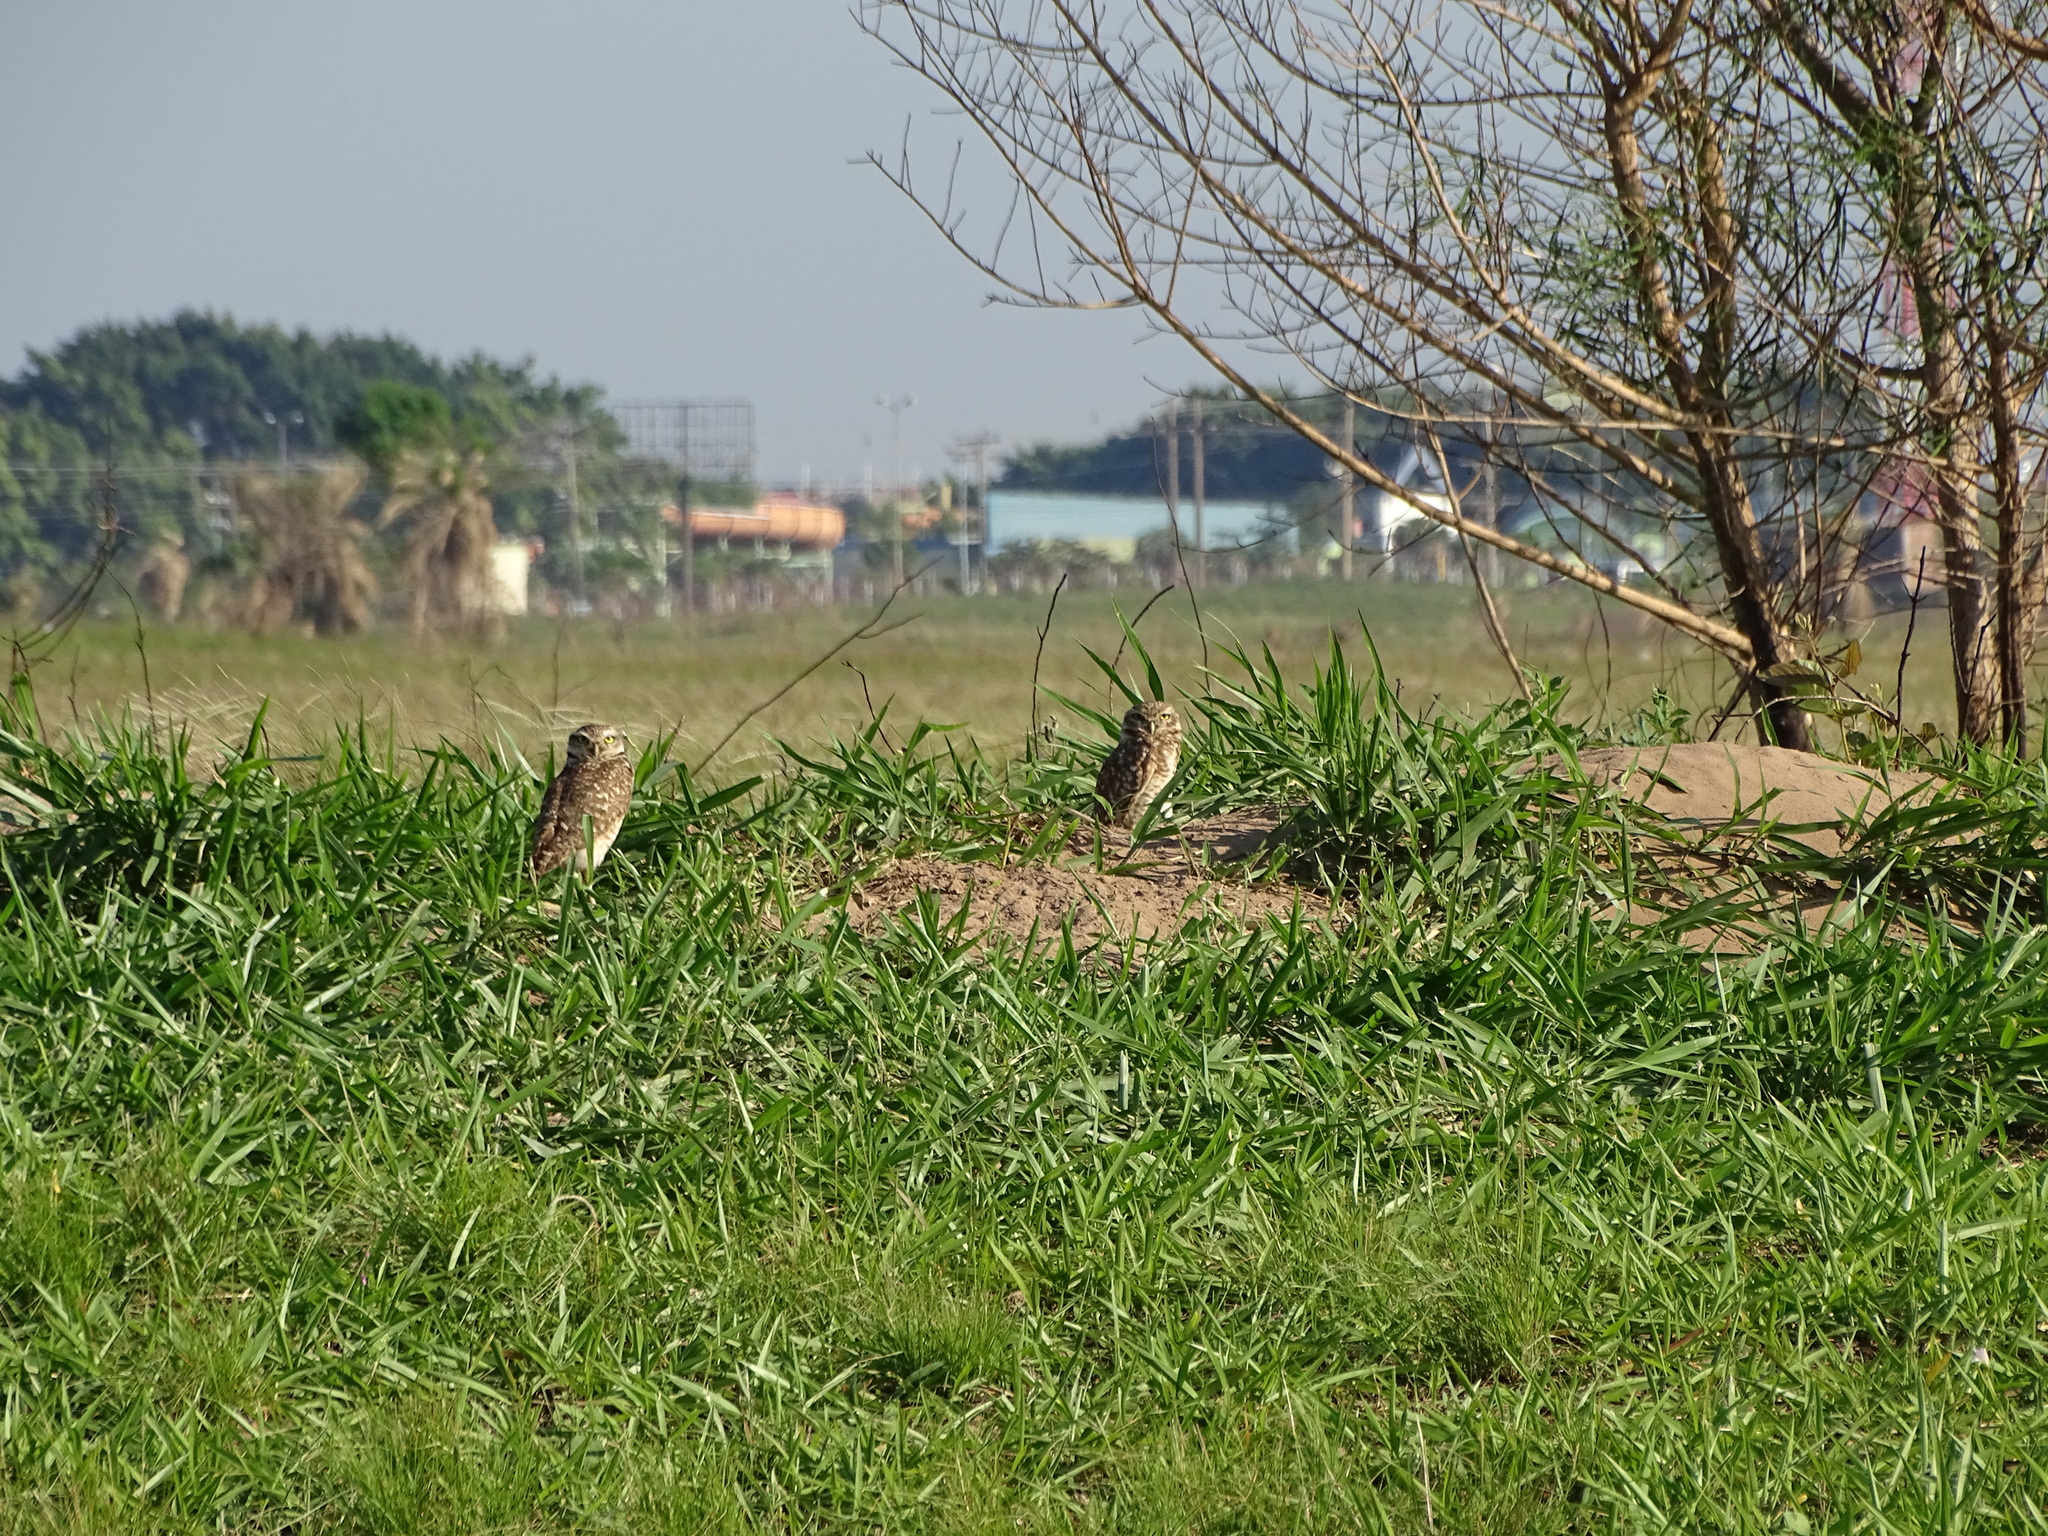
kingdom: Animalia
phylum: Chordata
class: Aves
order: Strigiformes
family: Strigidae
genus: Athene
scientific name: Athene cunicularia
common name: Burrowing owl
